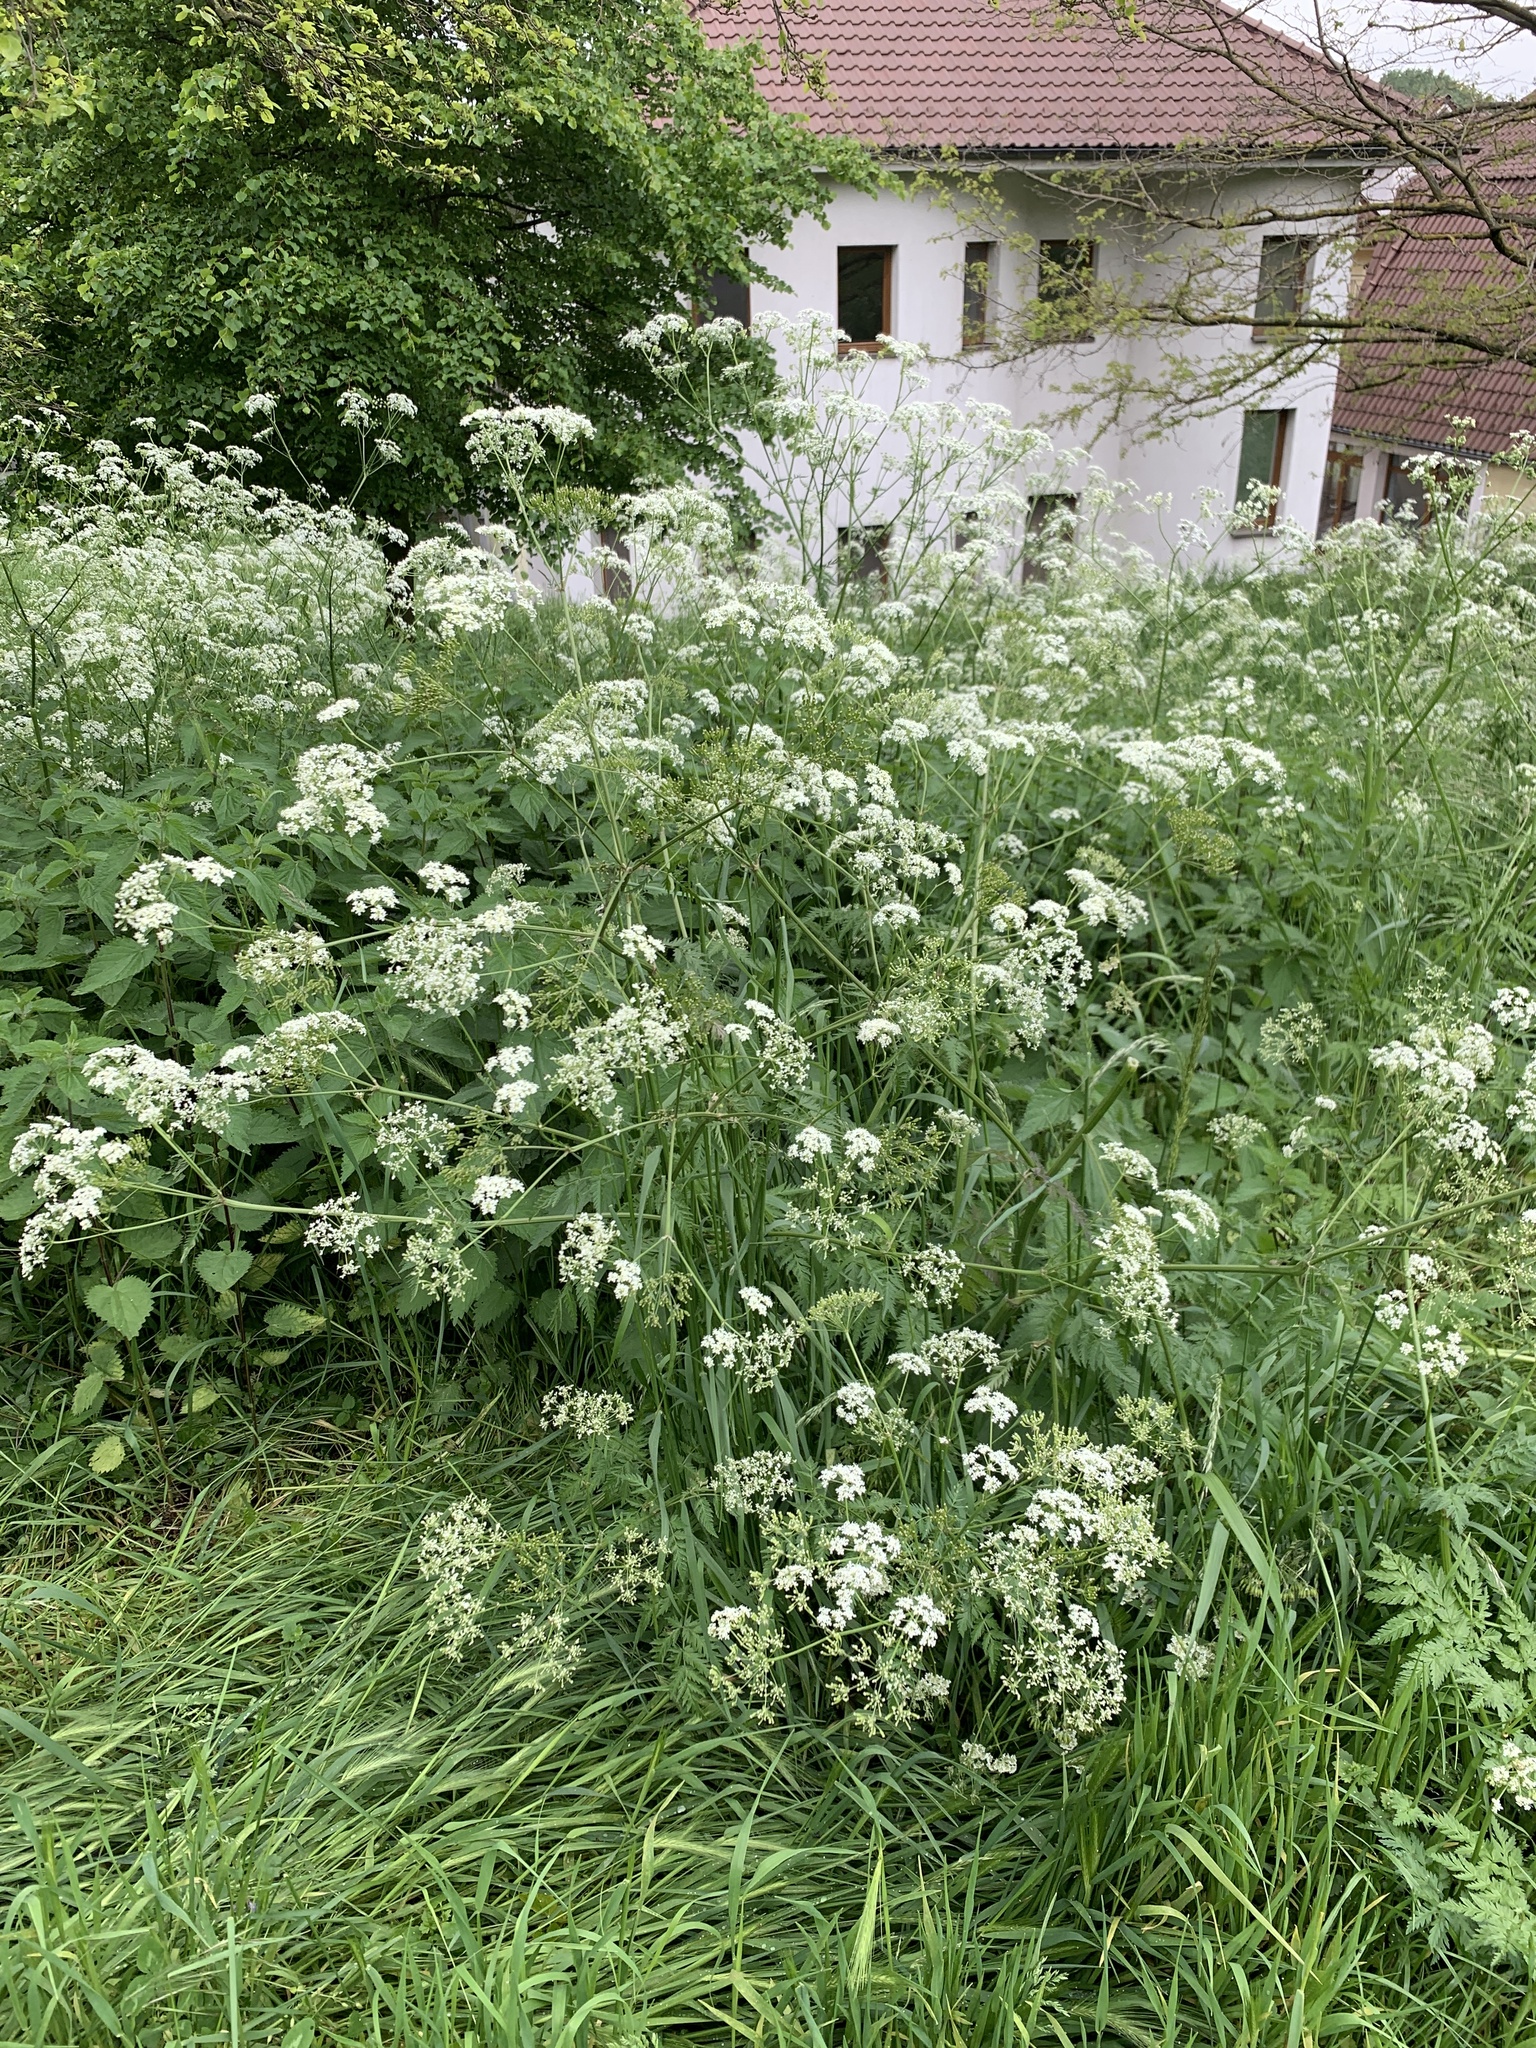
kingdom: Plantae
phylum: Tracheophyta
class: Magnoliopsida
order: Apiales
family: Apiaceae
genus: Anthriscus
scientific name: Anthriscus sylvestris
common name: Cow parsley
